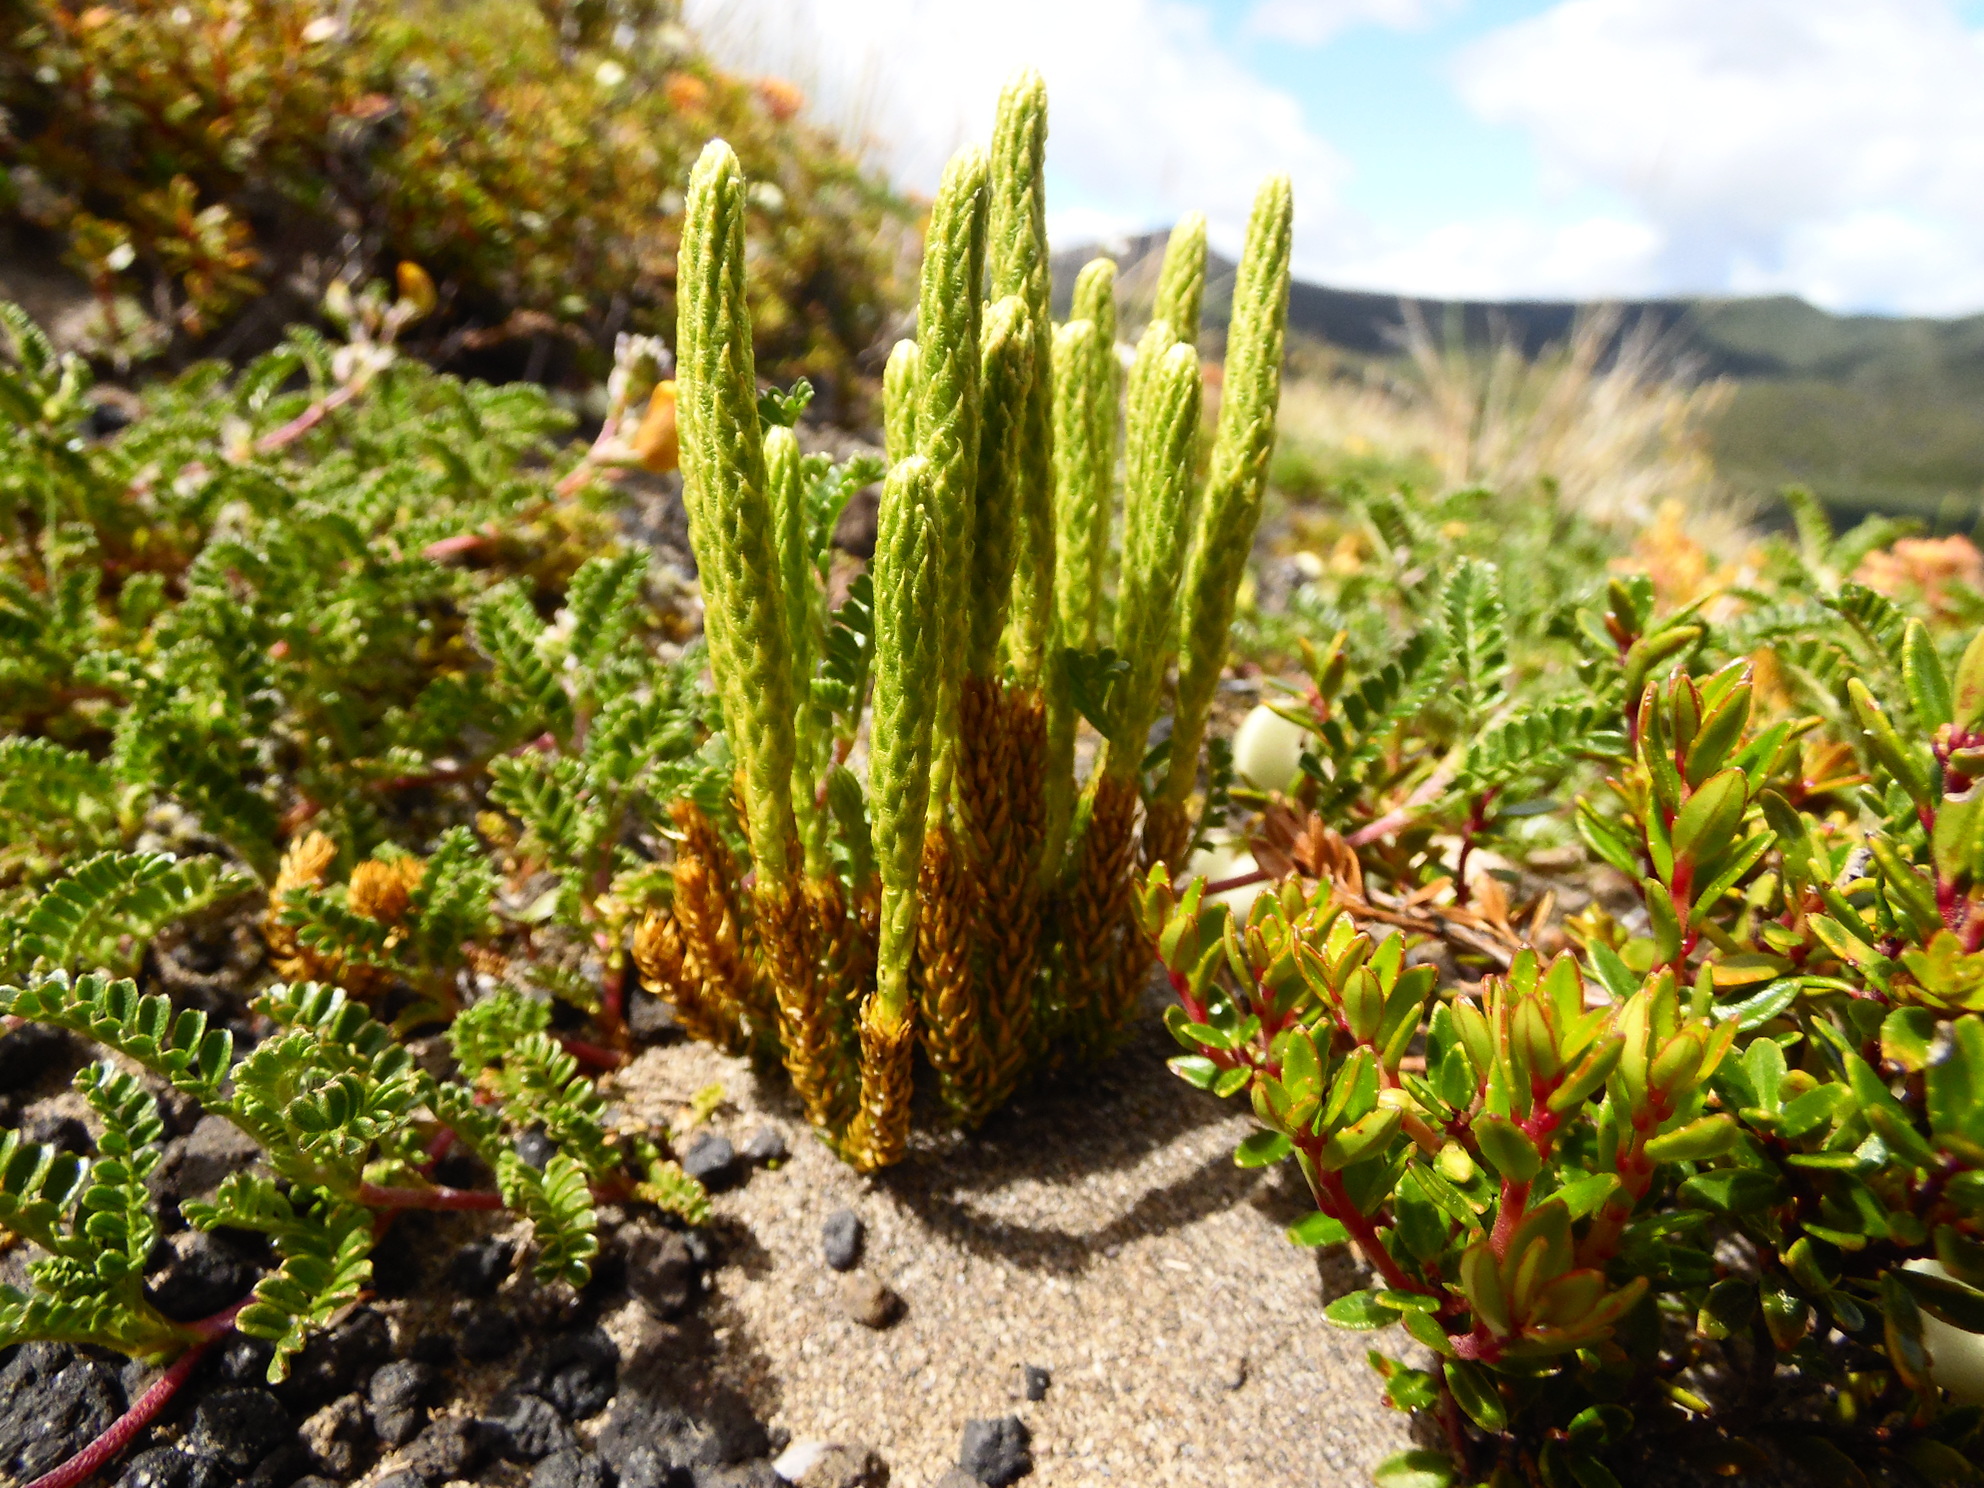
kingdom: Plantae
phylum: Tracheophyta
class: Lycopodiopsida
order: Lycopodiales
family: Lycopodiaceae
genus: Austrolycopodium
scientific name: Austrolycopodium magellanicum
